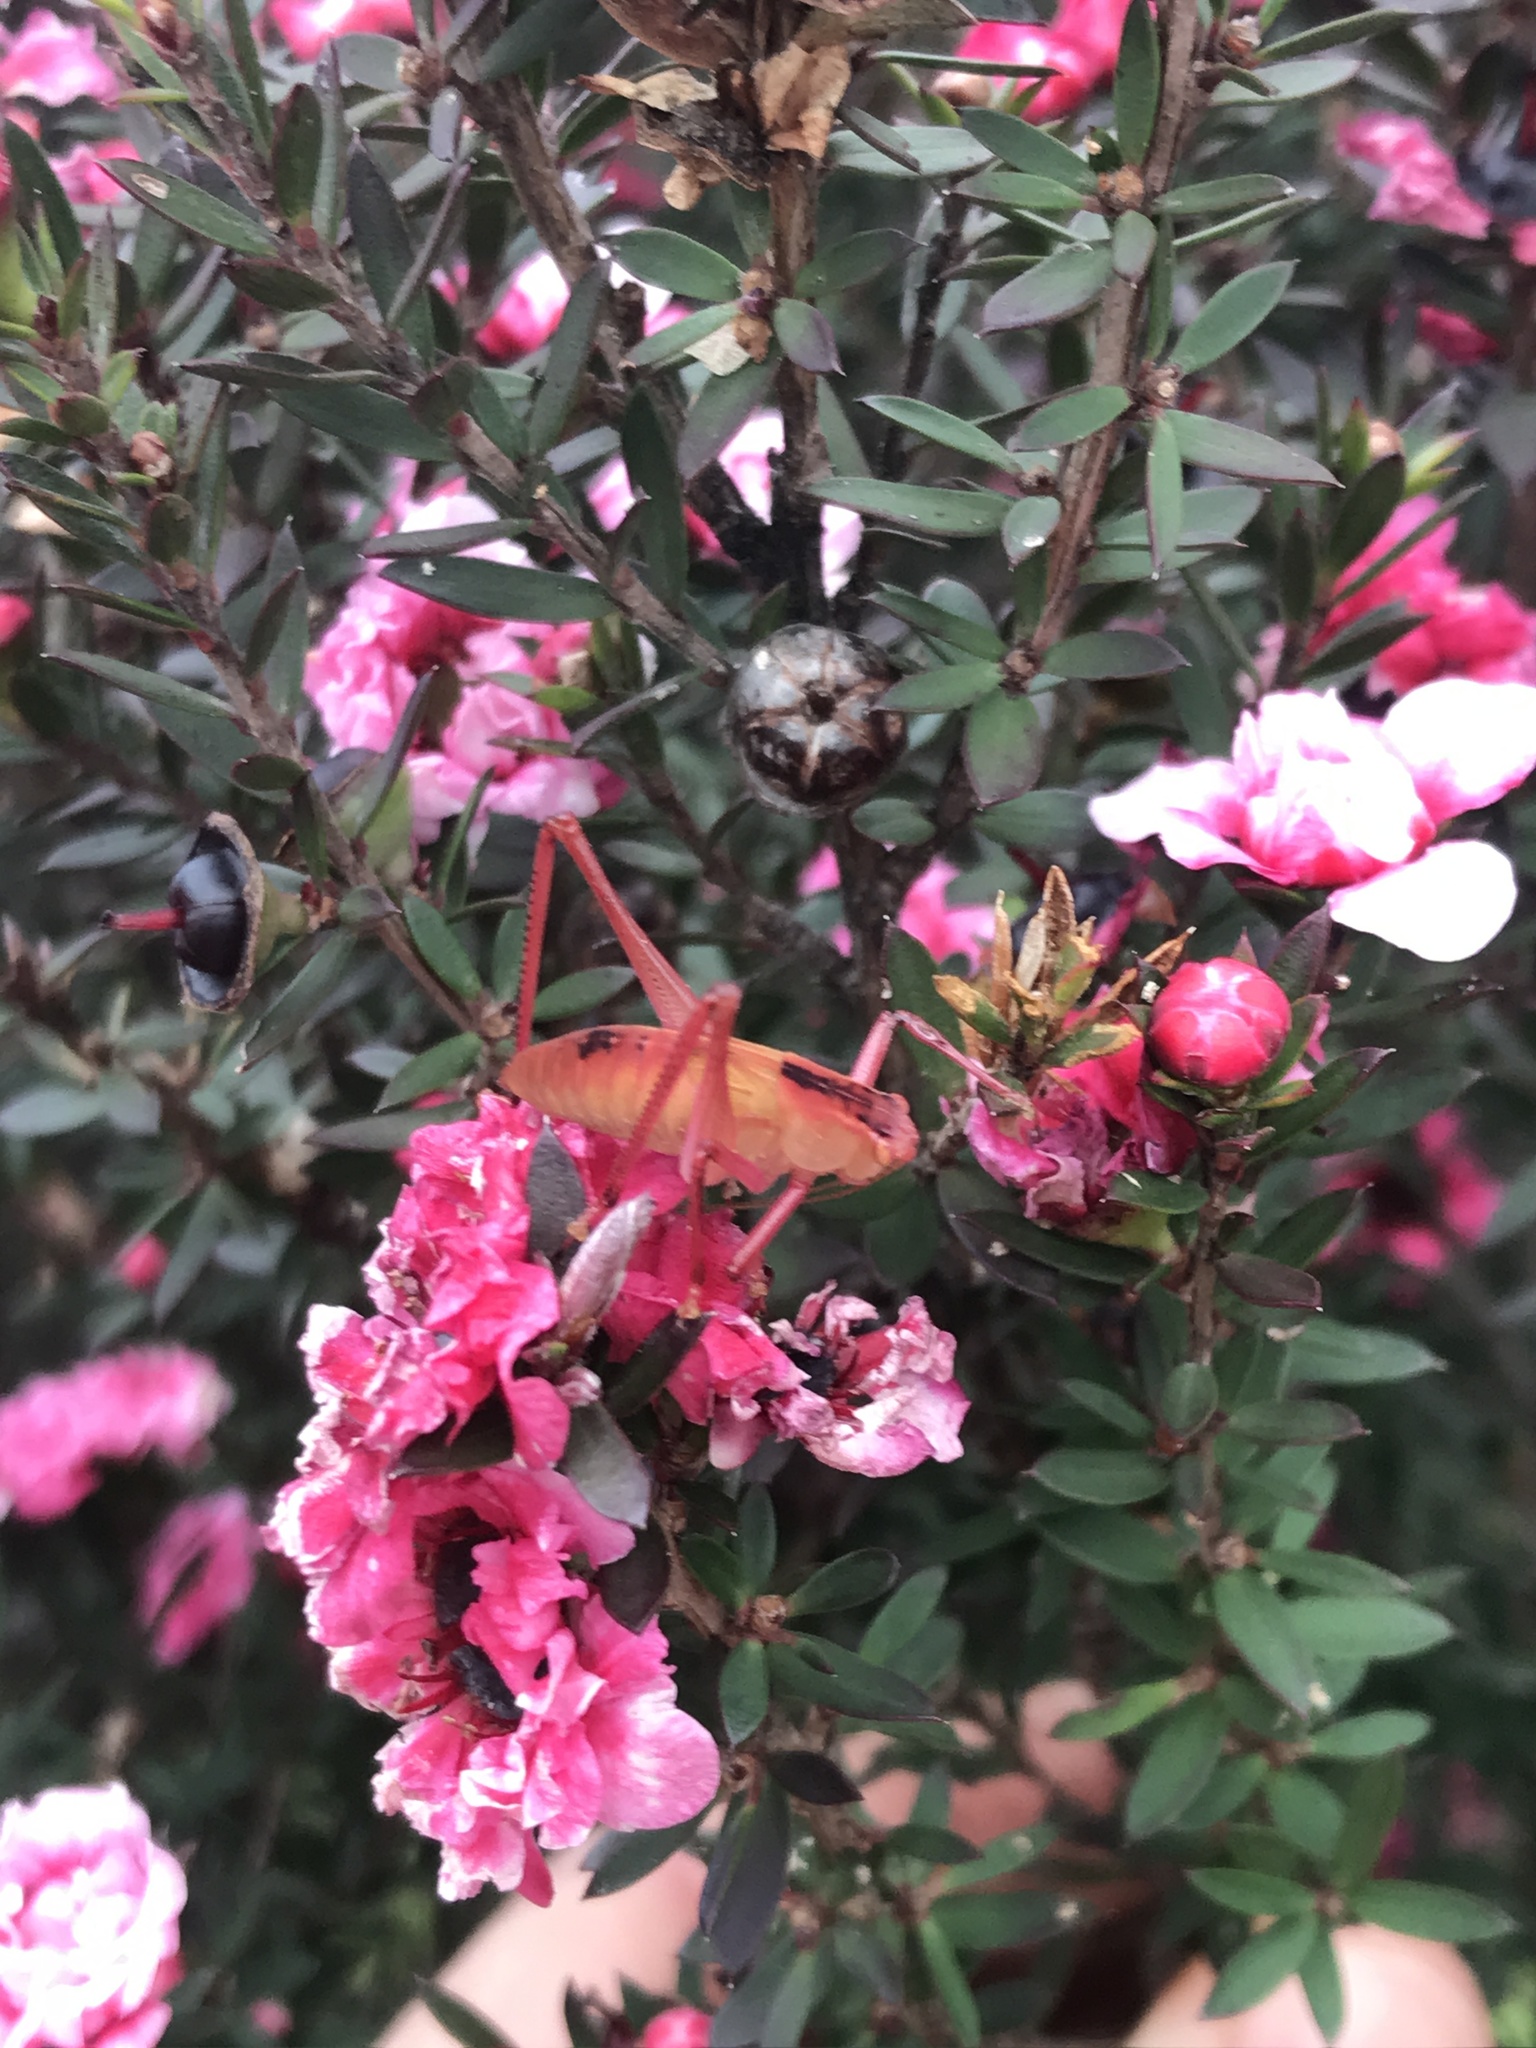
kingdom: Animalia
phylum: Arthropoda
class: Insecta
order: Orthoptera
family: Tettigoniidae
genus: Caedicia
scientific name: Caedicia simplex
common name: Common garden katydid
